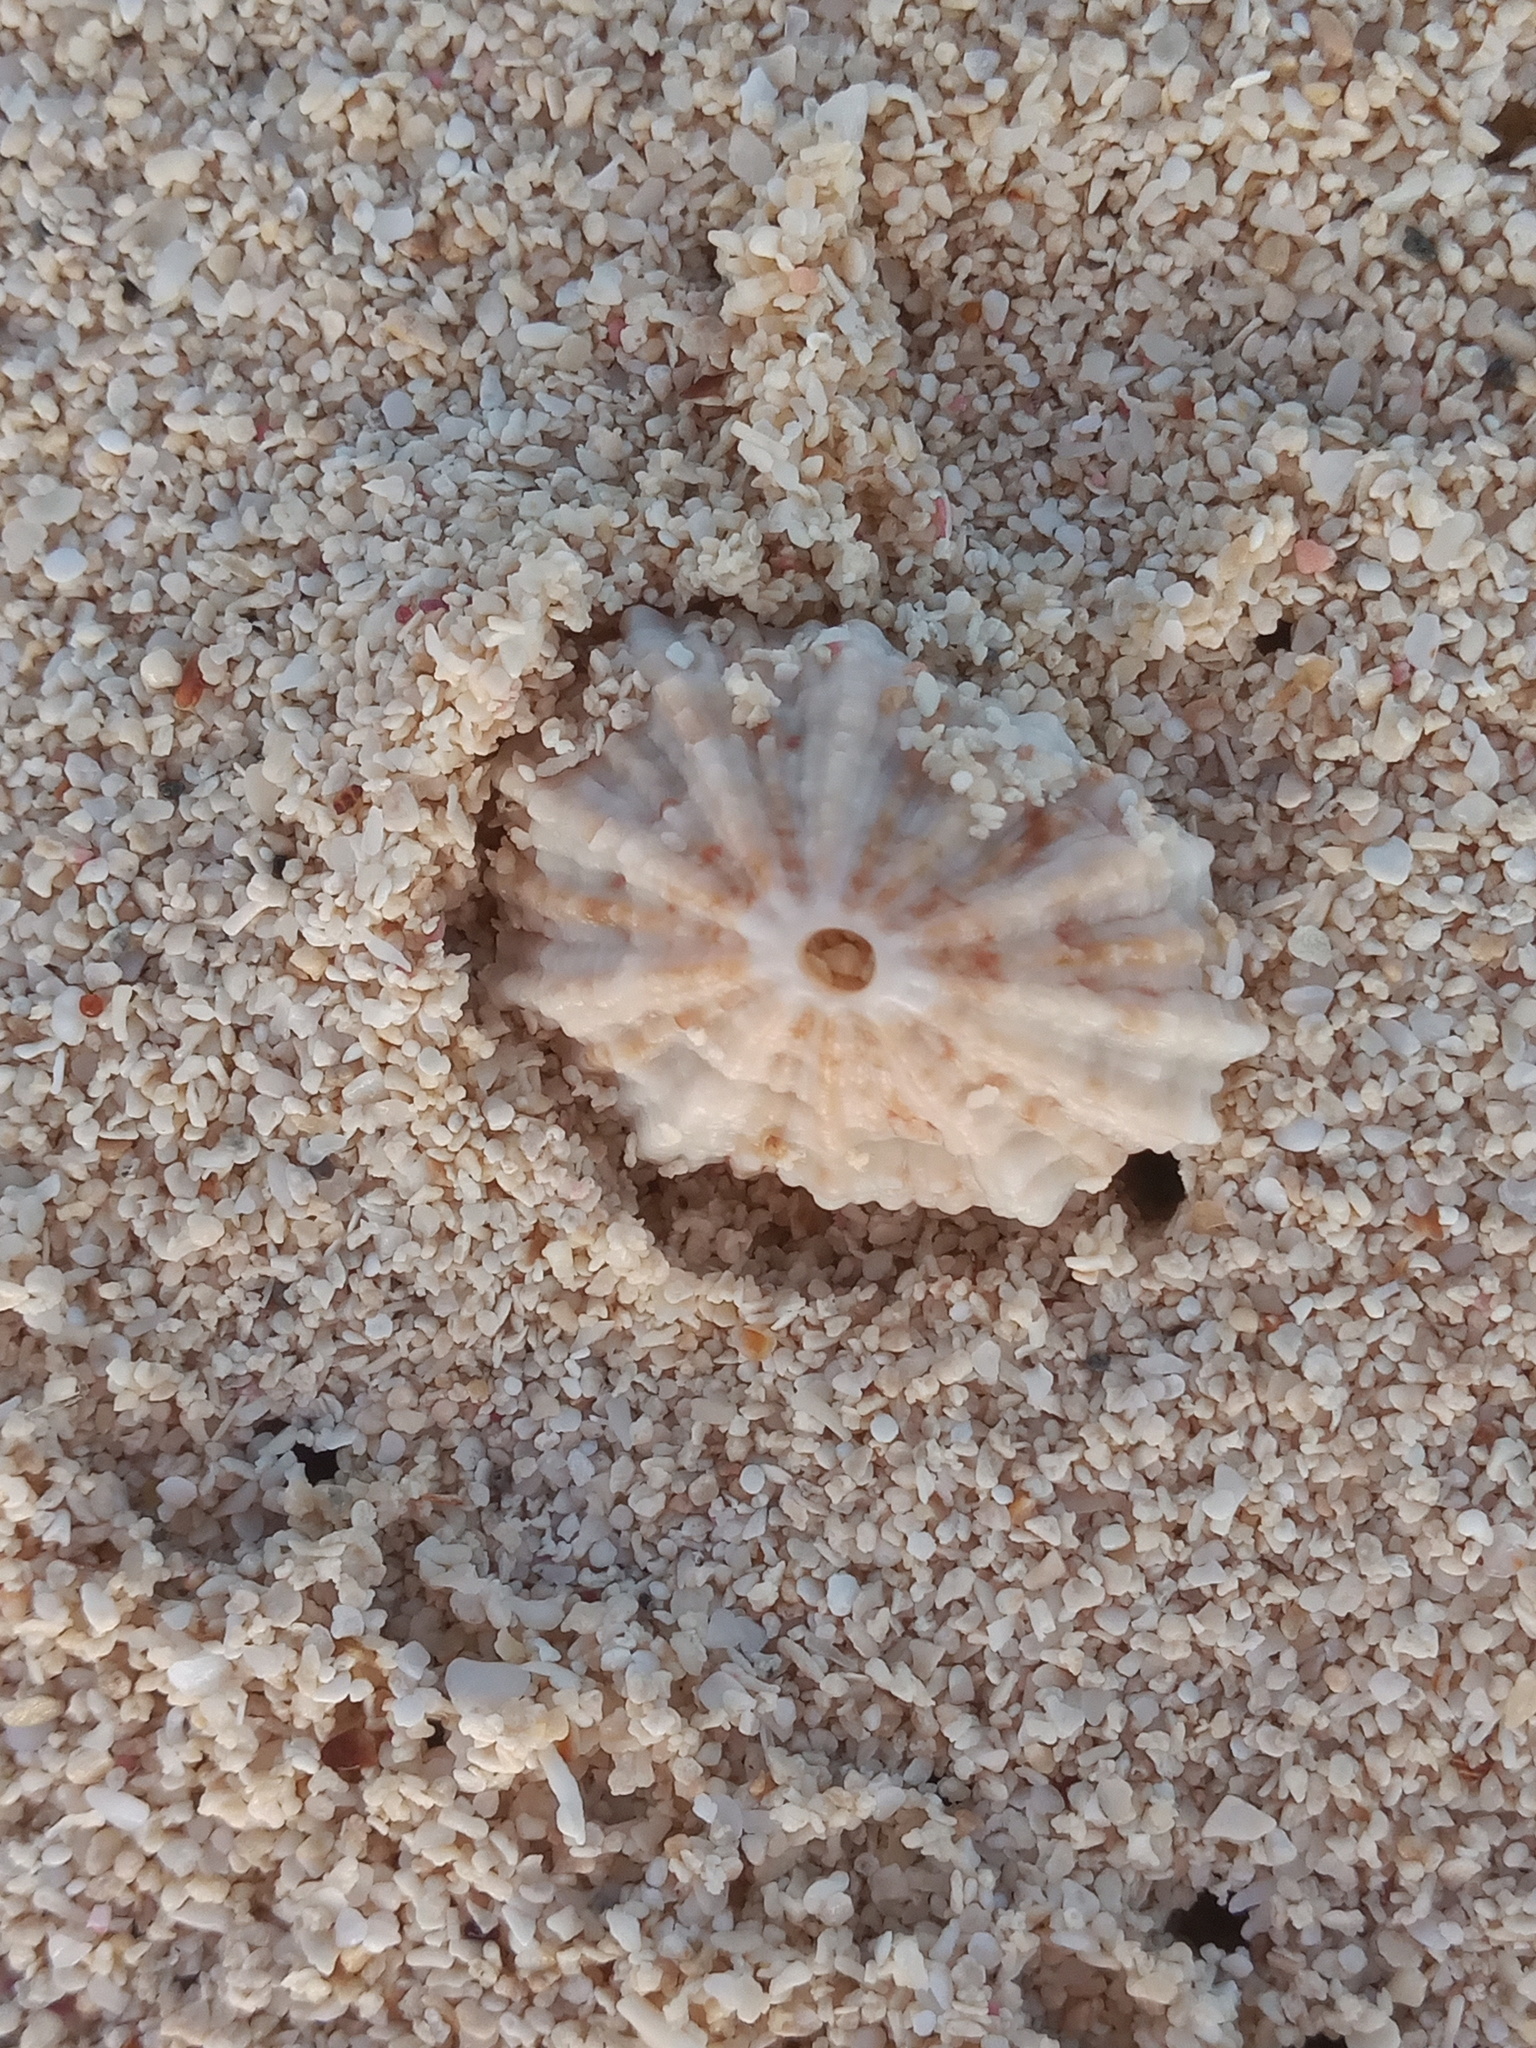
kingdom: Animalia
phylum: Mollusca
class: Gastropoda
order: Lepetellida
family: Fissurellidae
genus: Fissurella
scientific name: Fissurella barbadensis
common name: Barbados keyhole limpet
